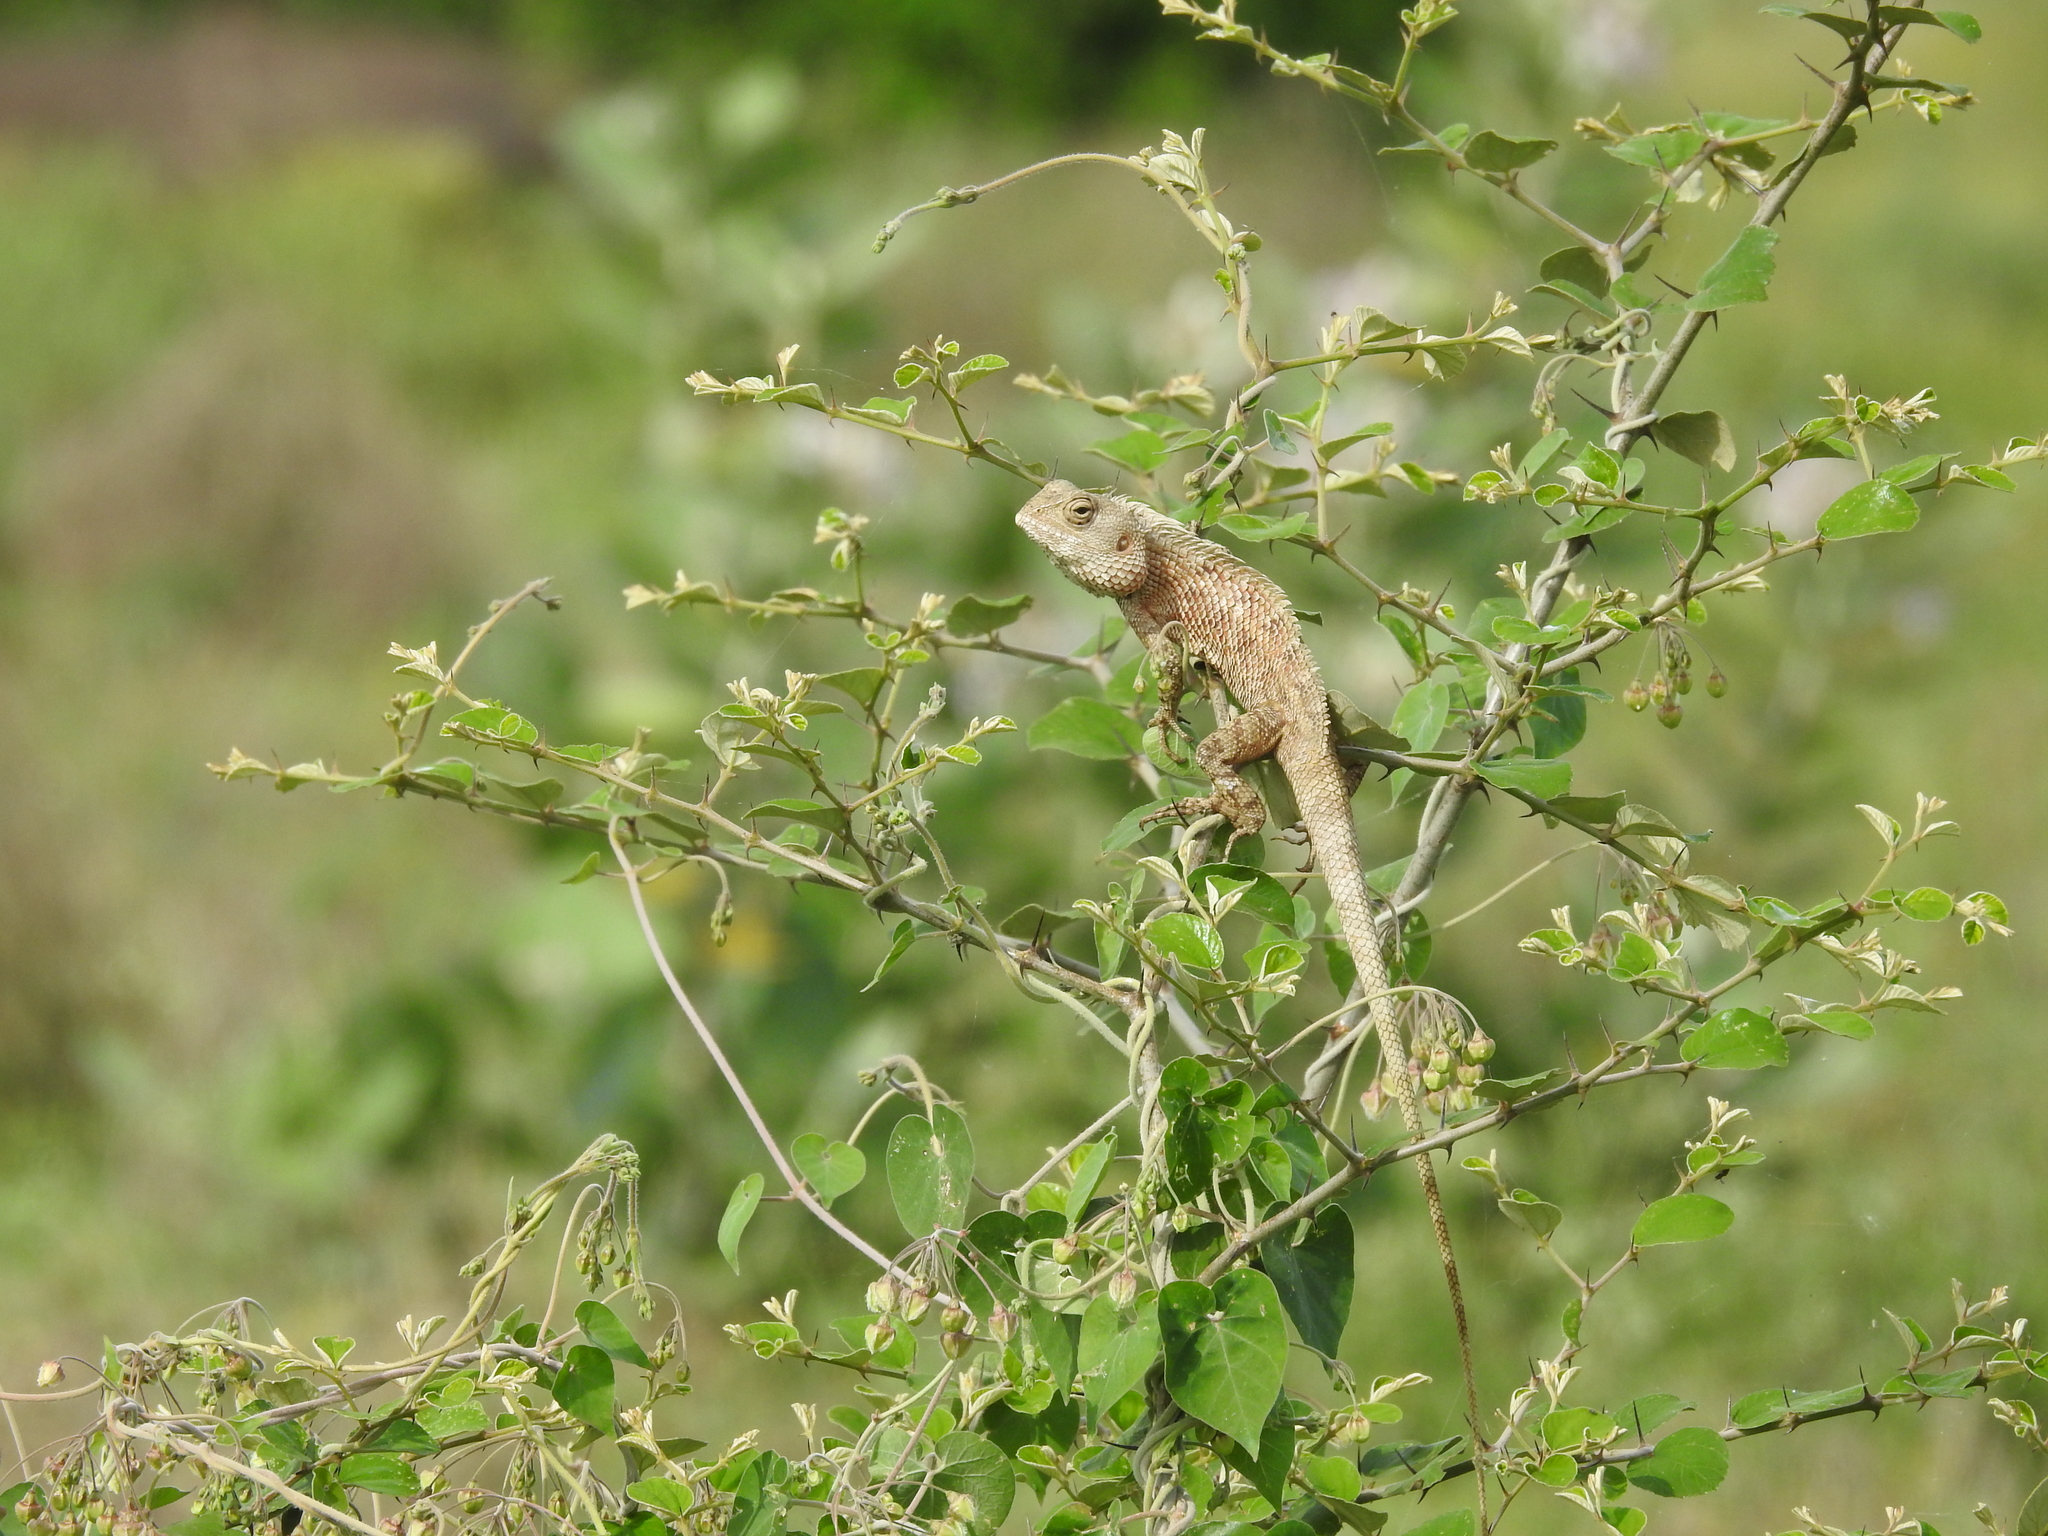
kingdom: Animalia
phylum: Chordata
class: Squamata
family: Agamidae
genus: Calotes
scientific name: Calotes versicolor
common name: Oriental garden lizard
